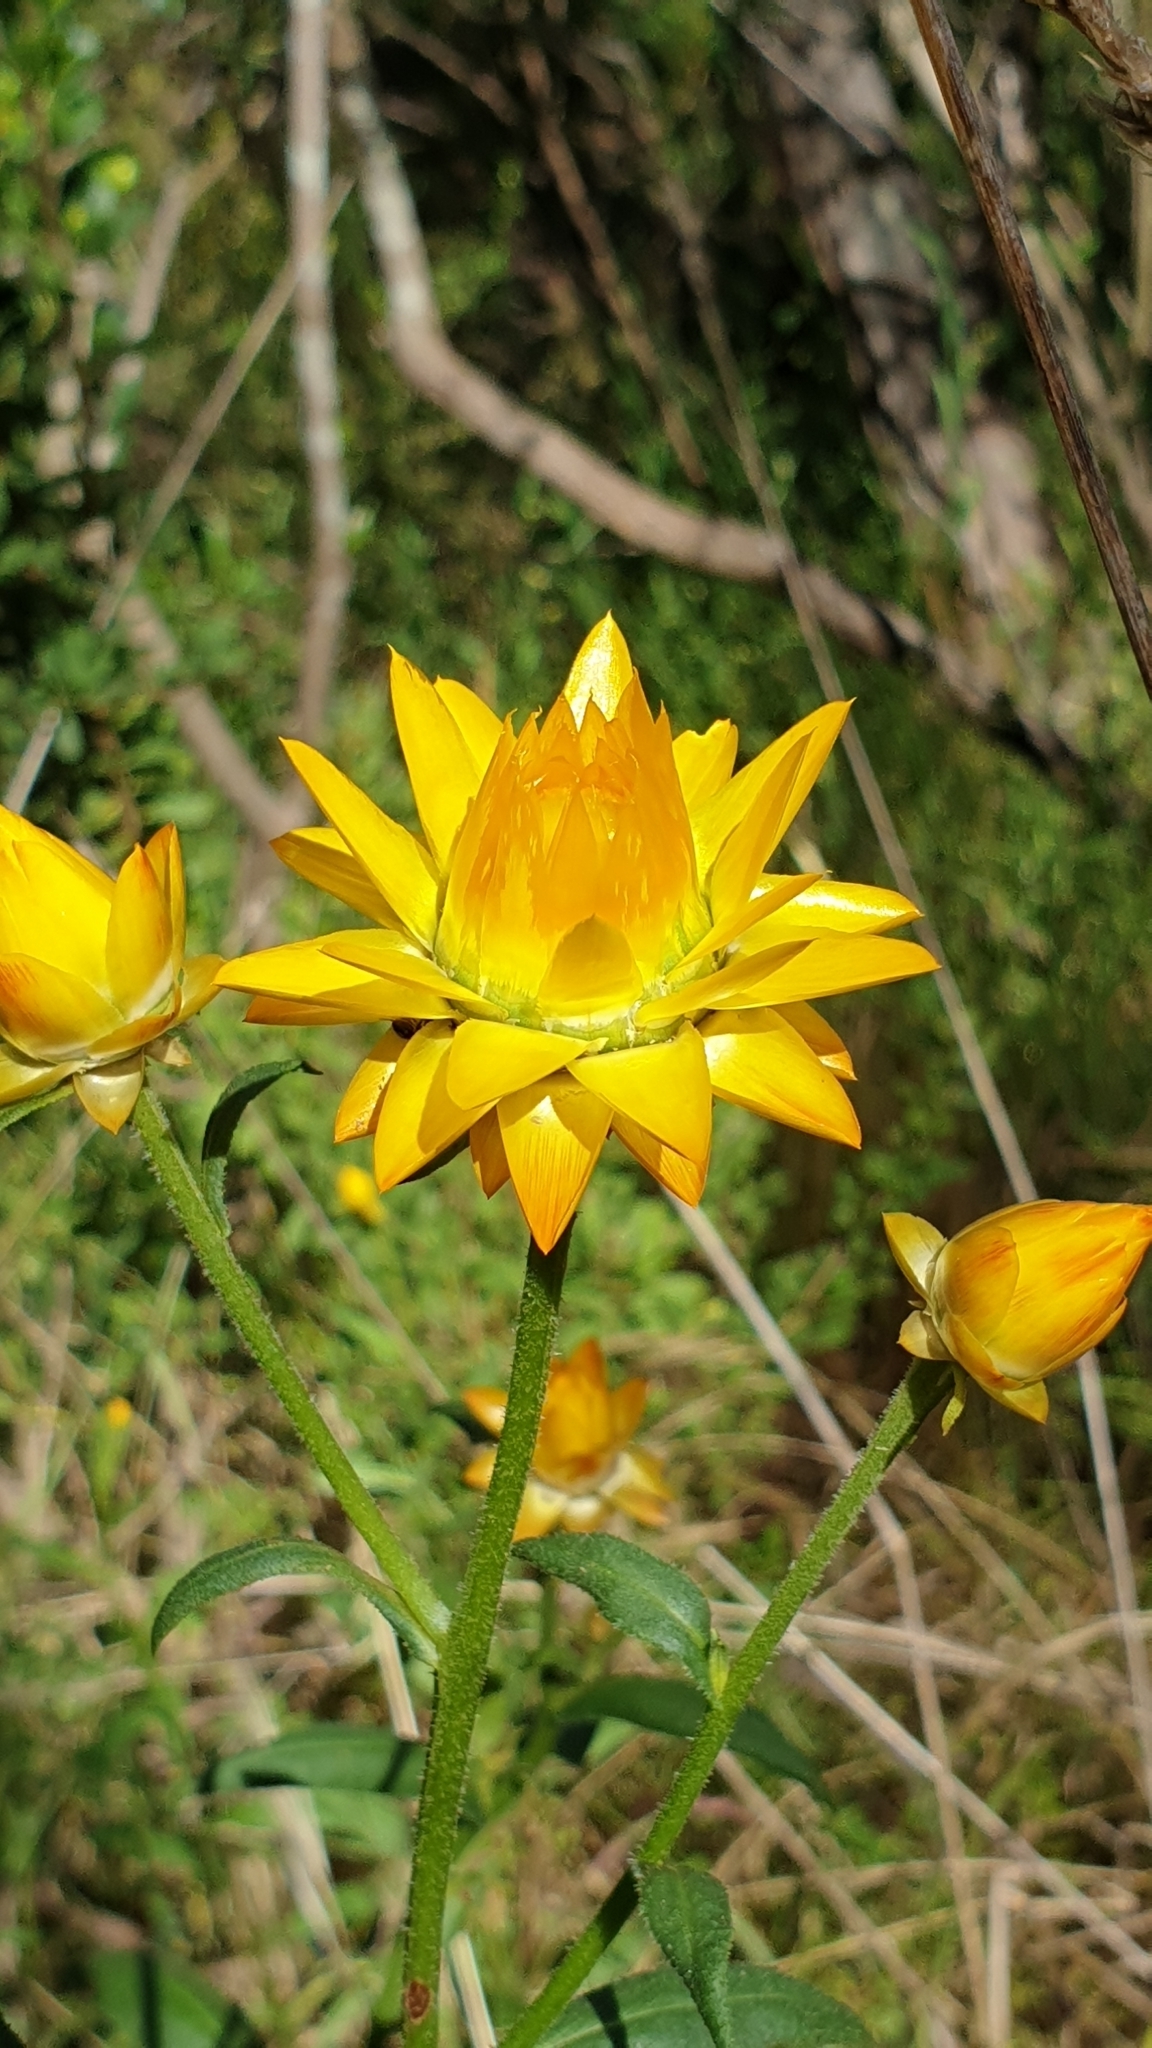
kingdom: Plantae
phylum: Tracheophyta
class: Magnoliopsida
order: Asterales
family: Asteraceae
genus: Xerochrysum
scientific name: Xerochrysum bracteatum
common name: Bracted strawflower
